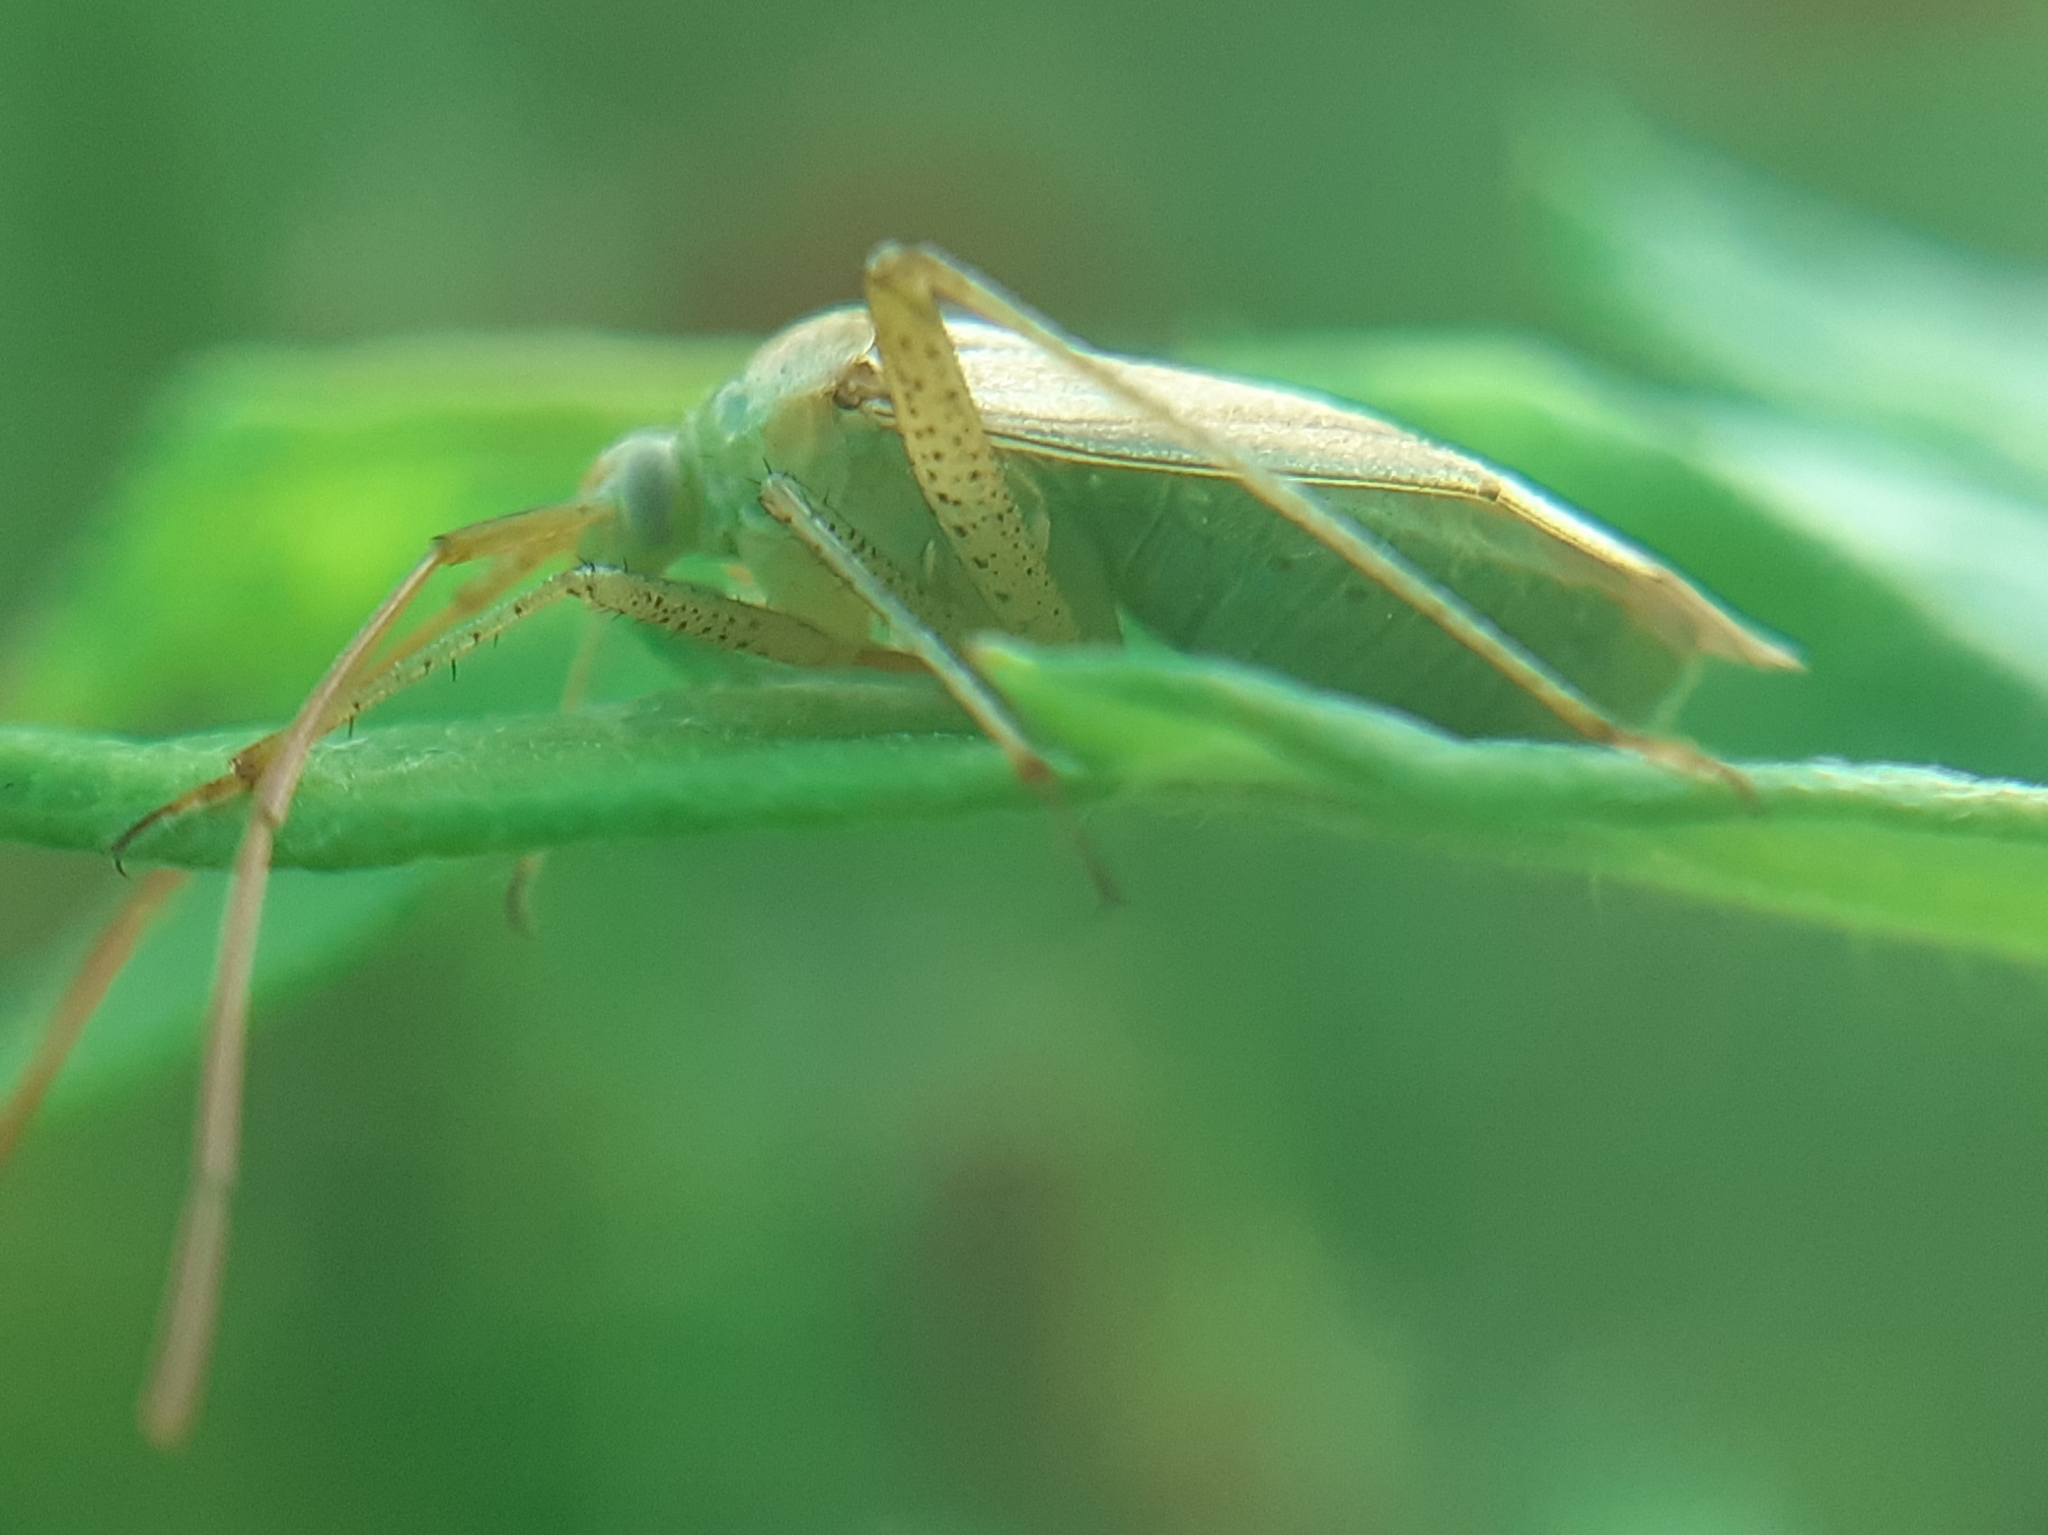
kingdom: Animalia
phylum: Arthropoda
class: Insecta
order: Hemiptera
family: Miridae
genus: Adelphocoris
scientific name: Adelphocoris lineolatus
